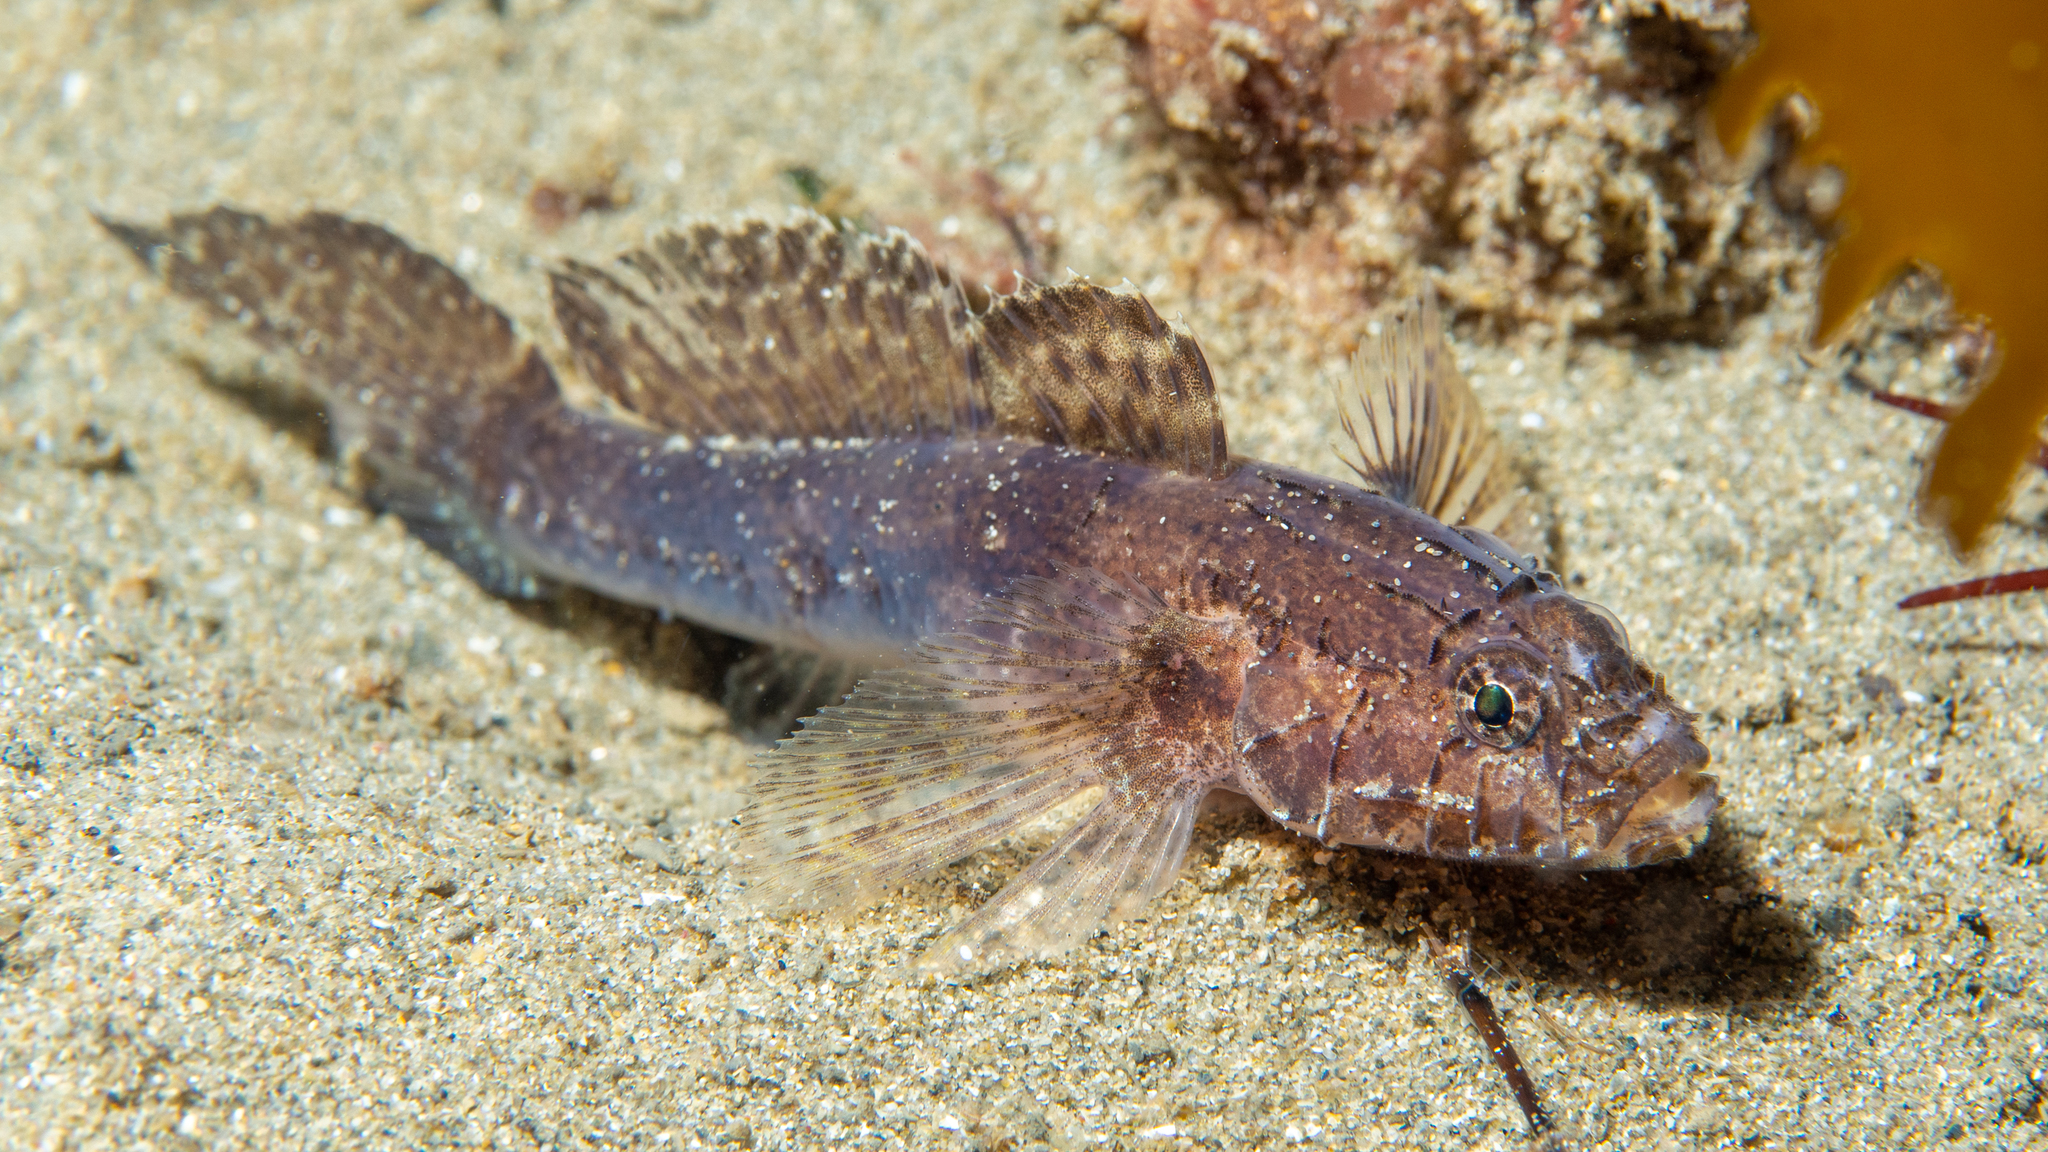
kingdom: Animalia
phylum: Chordata
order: Perciformes
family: Gobiidae
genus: Callogobius
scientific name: Callogobius mucosus
